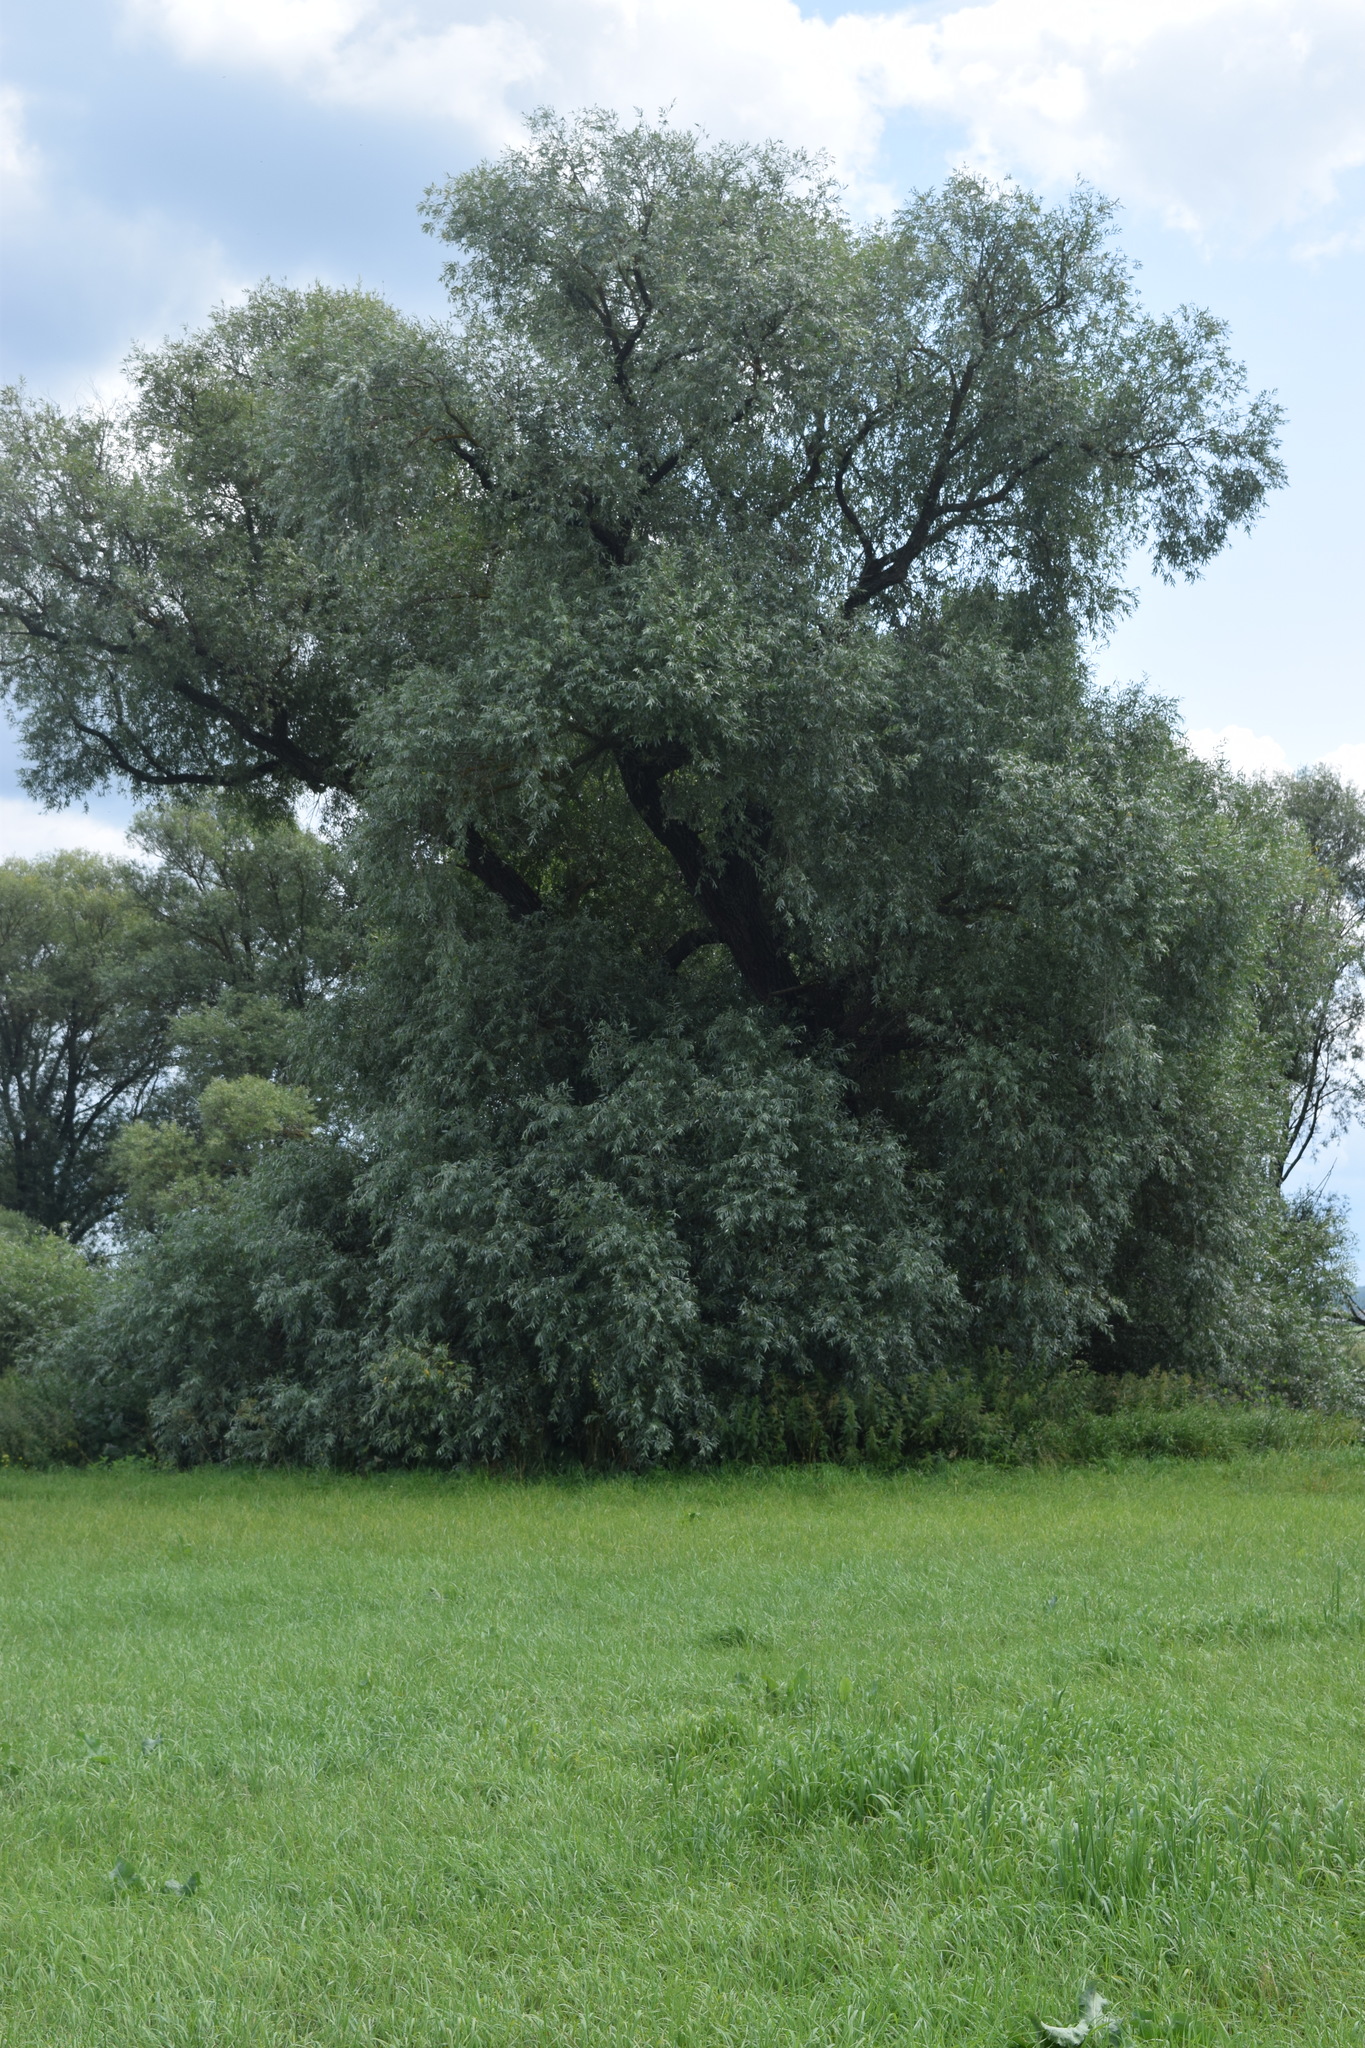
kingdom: Plantae
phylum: Tracheophyta
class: Magnoliopsida
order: Malpighiales
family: Salicaceae
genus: Salix
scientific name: Salix alba
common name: White willow
